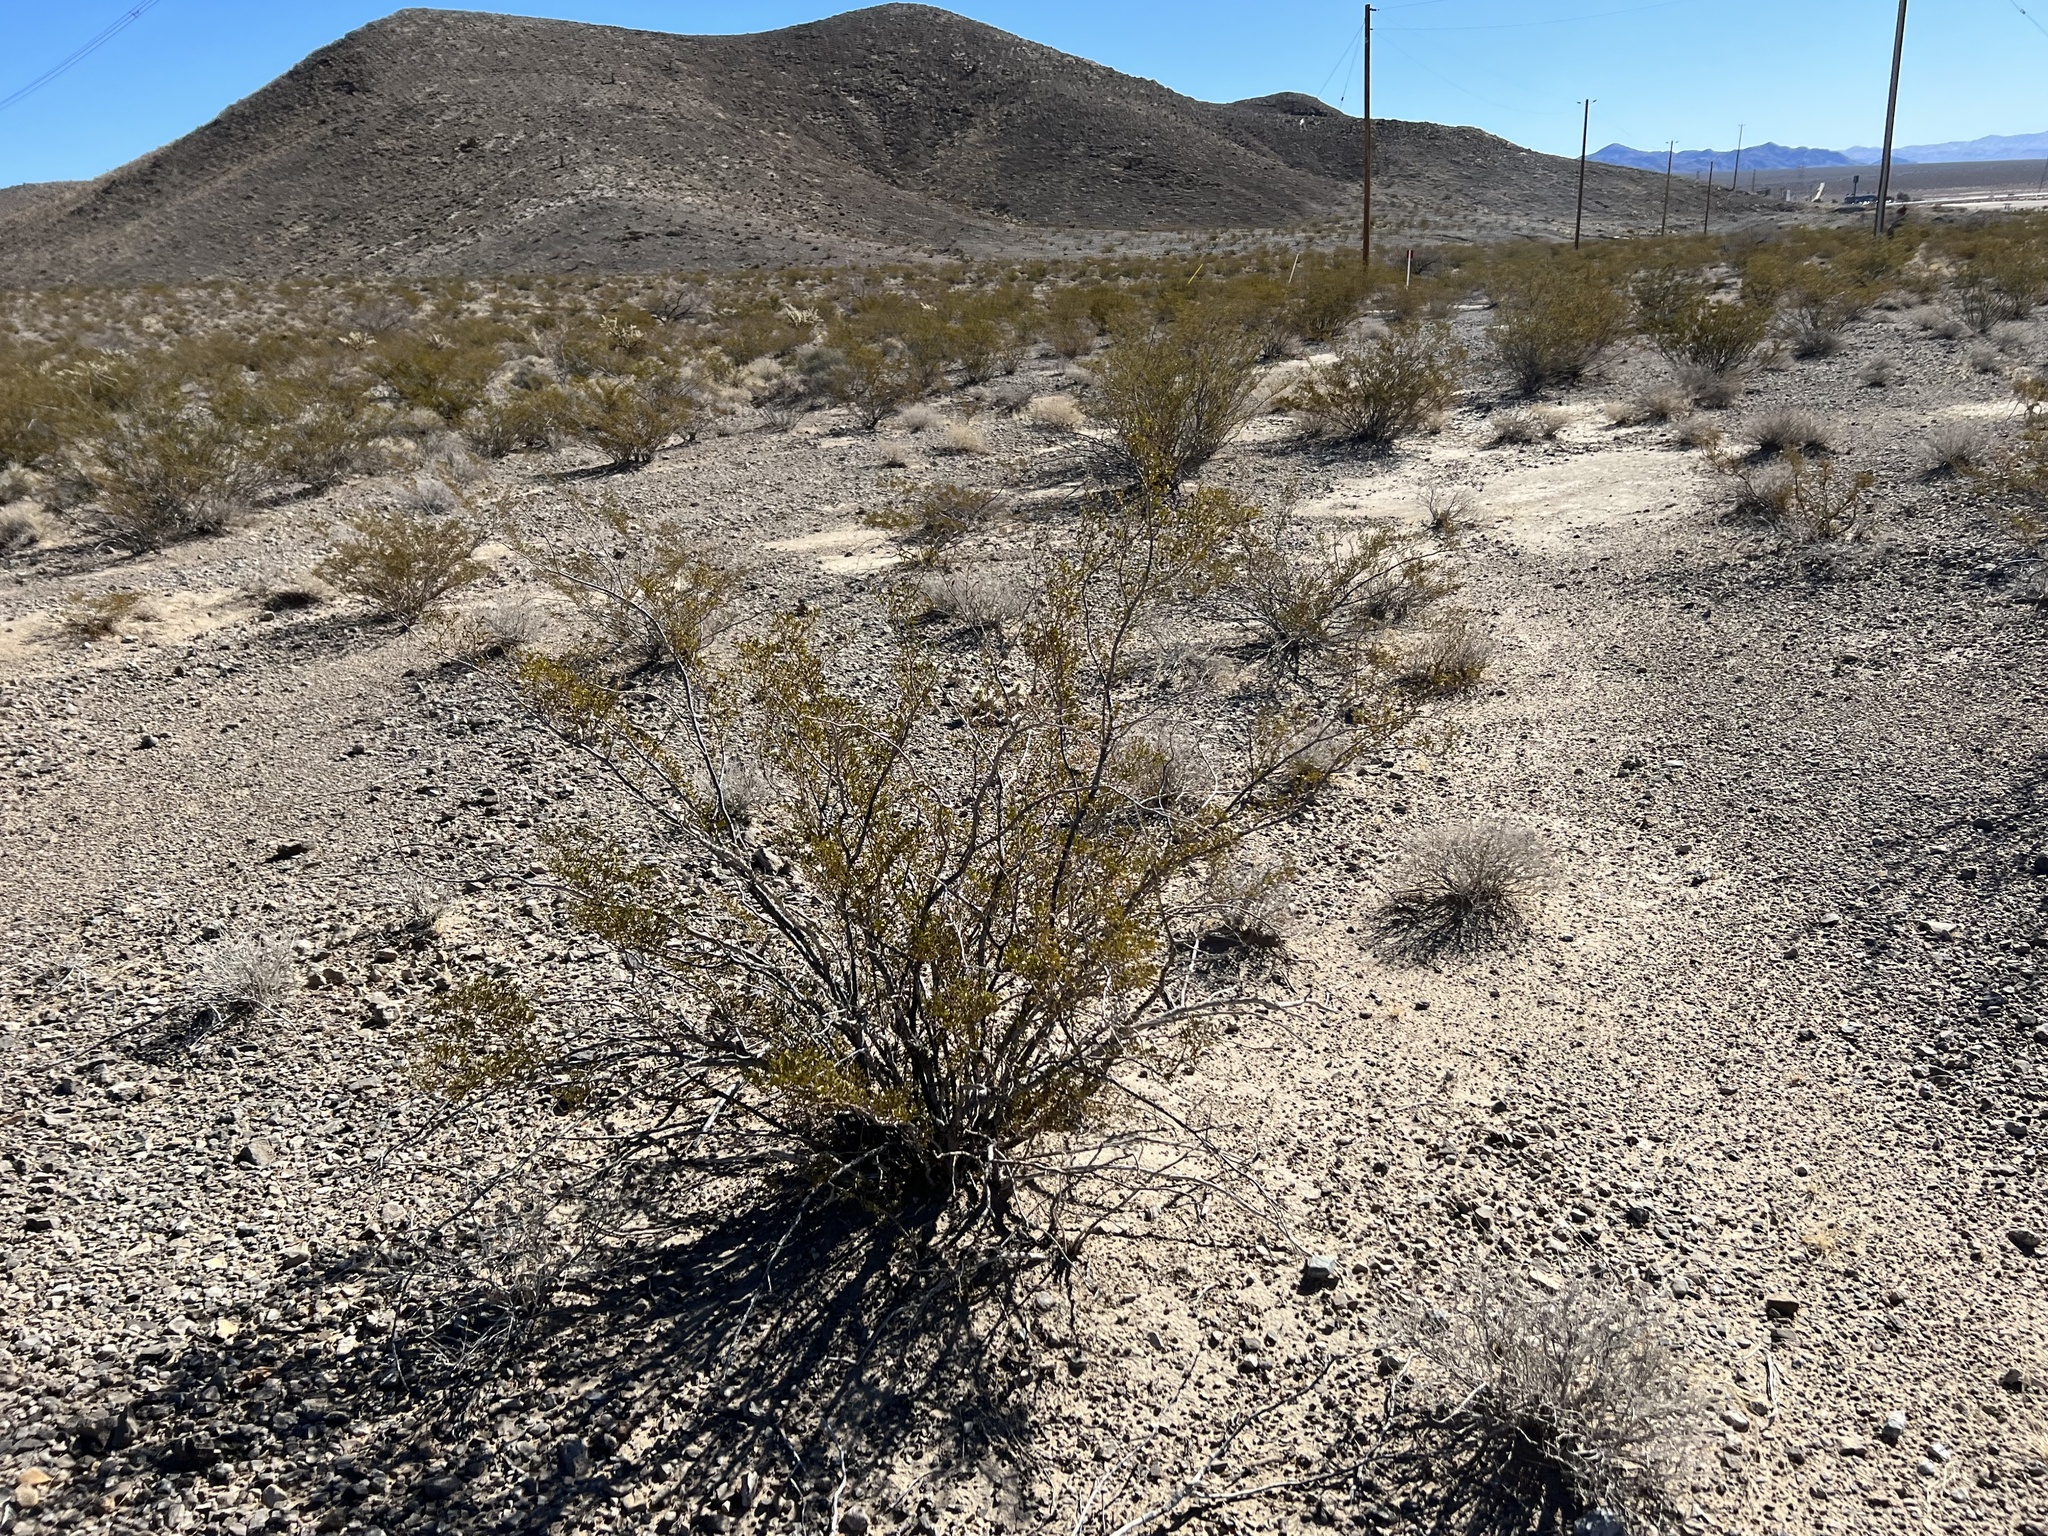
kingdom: Plantae
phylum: Tracheophyta
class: Magnoliopsida
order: Zygophyllales
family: Zygophyllaceae
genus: Larrea
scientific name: Larrea tridentata
